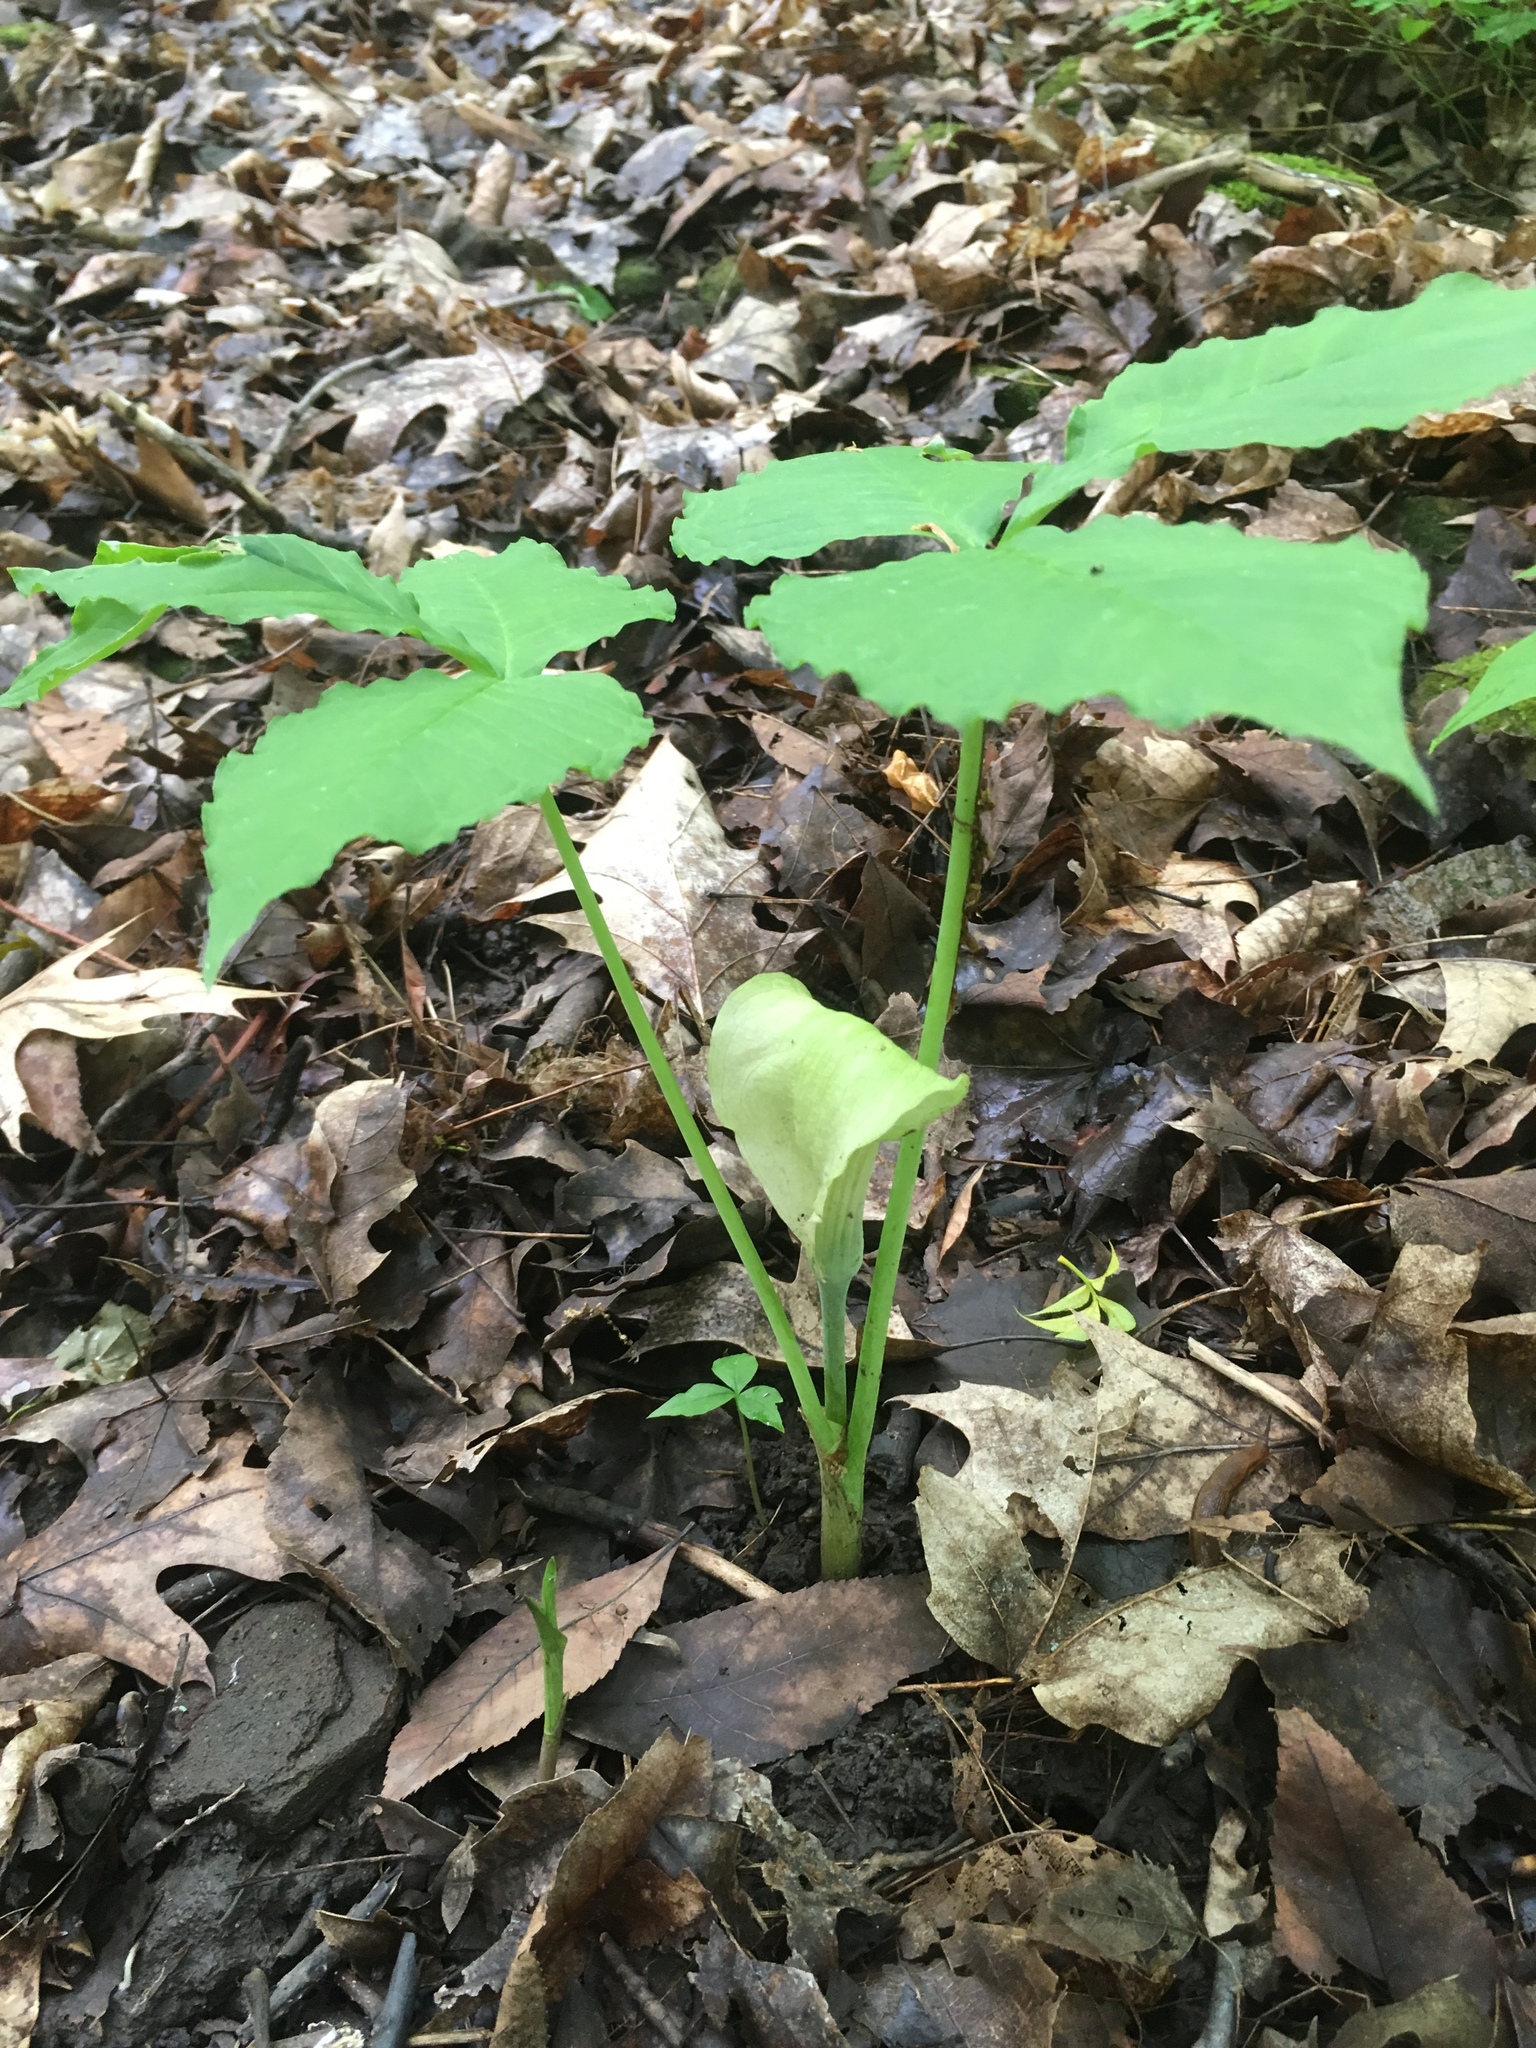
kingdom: Plantae
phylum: Tracheophyta
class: Liliopsida
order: Alismatales
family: Araceae
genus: Arisaema
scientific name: Arisaema triphyllum
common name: Jack-in-the-pulpit
